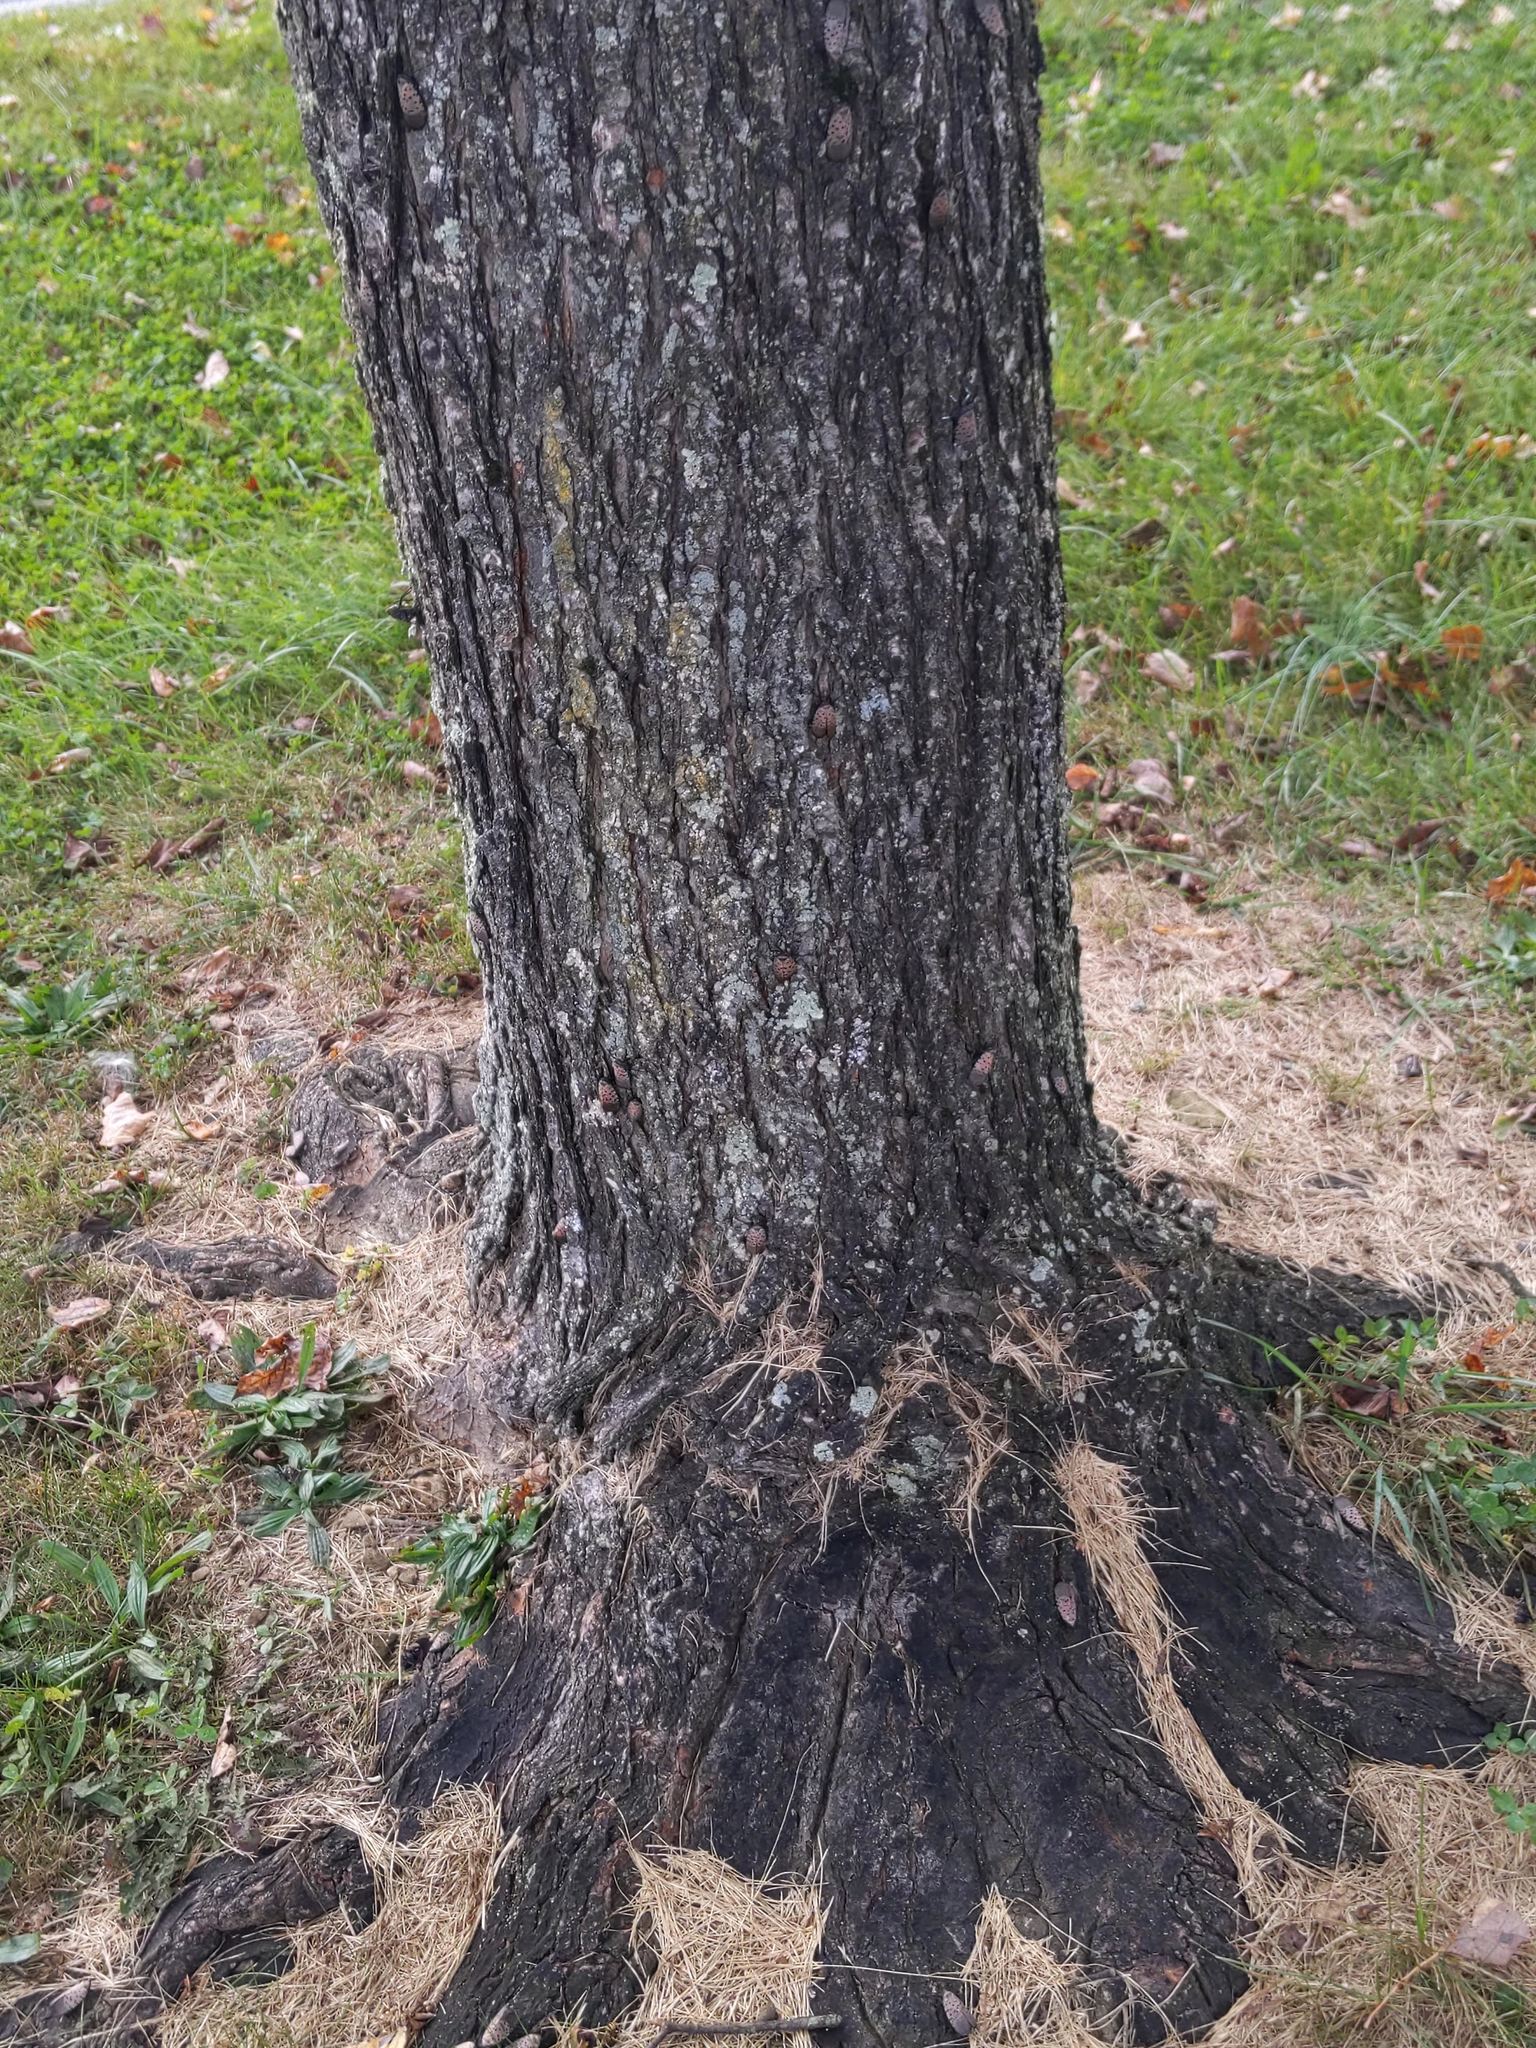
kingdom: Animalia
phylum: Arthropoda
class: Insecta
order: Hemiptera
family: Fulgoridae
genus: Lycorma
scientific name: Lycorma delicatula
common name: Spotted lanternfly
